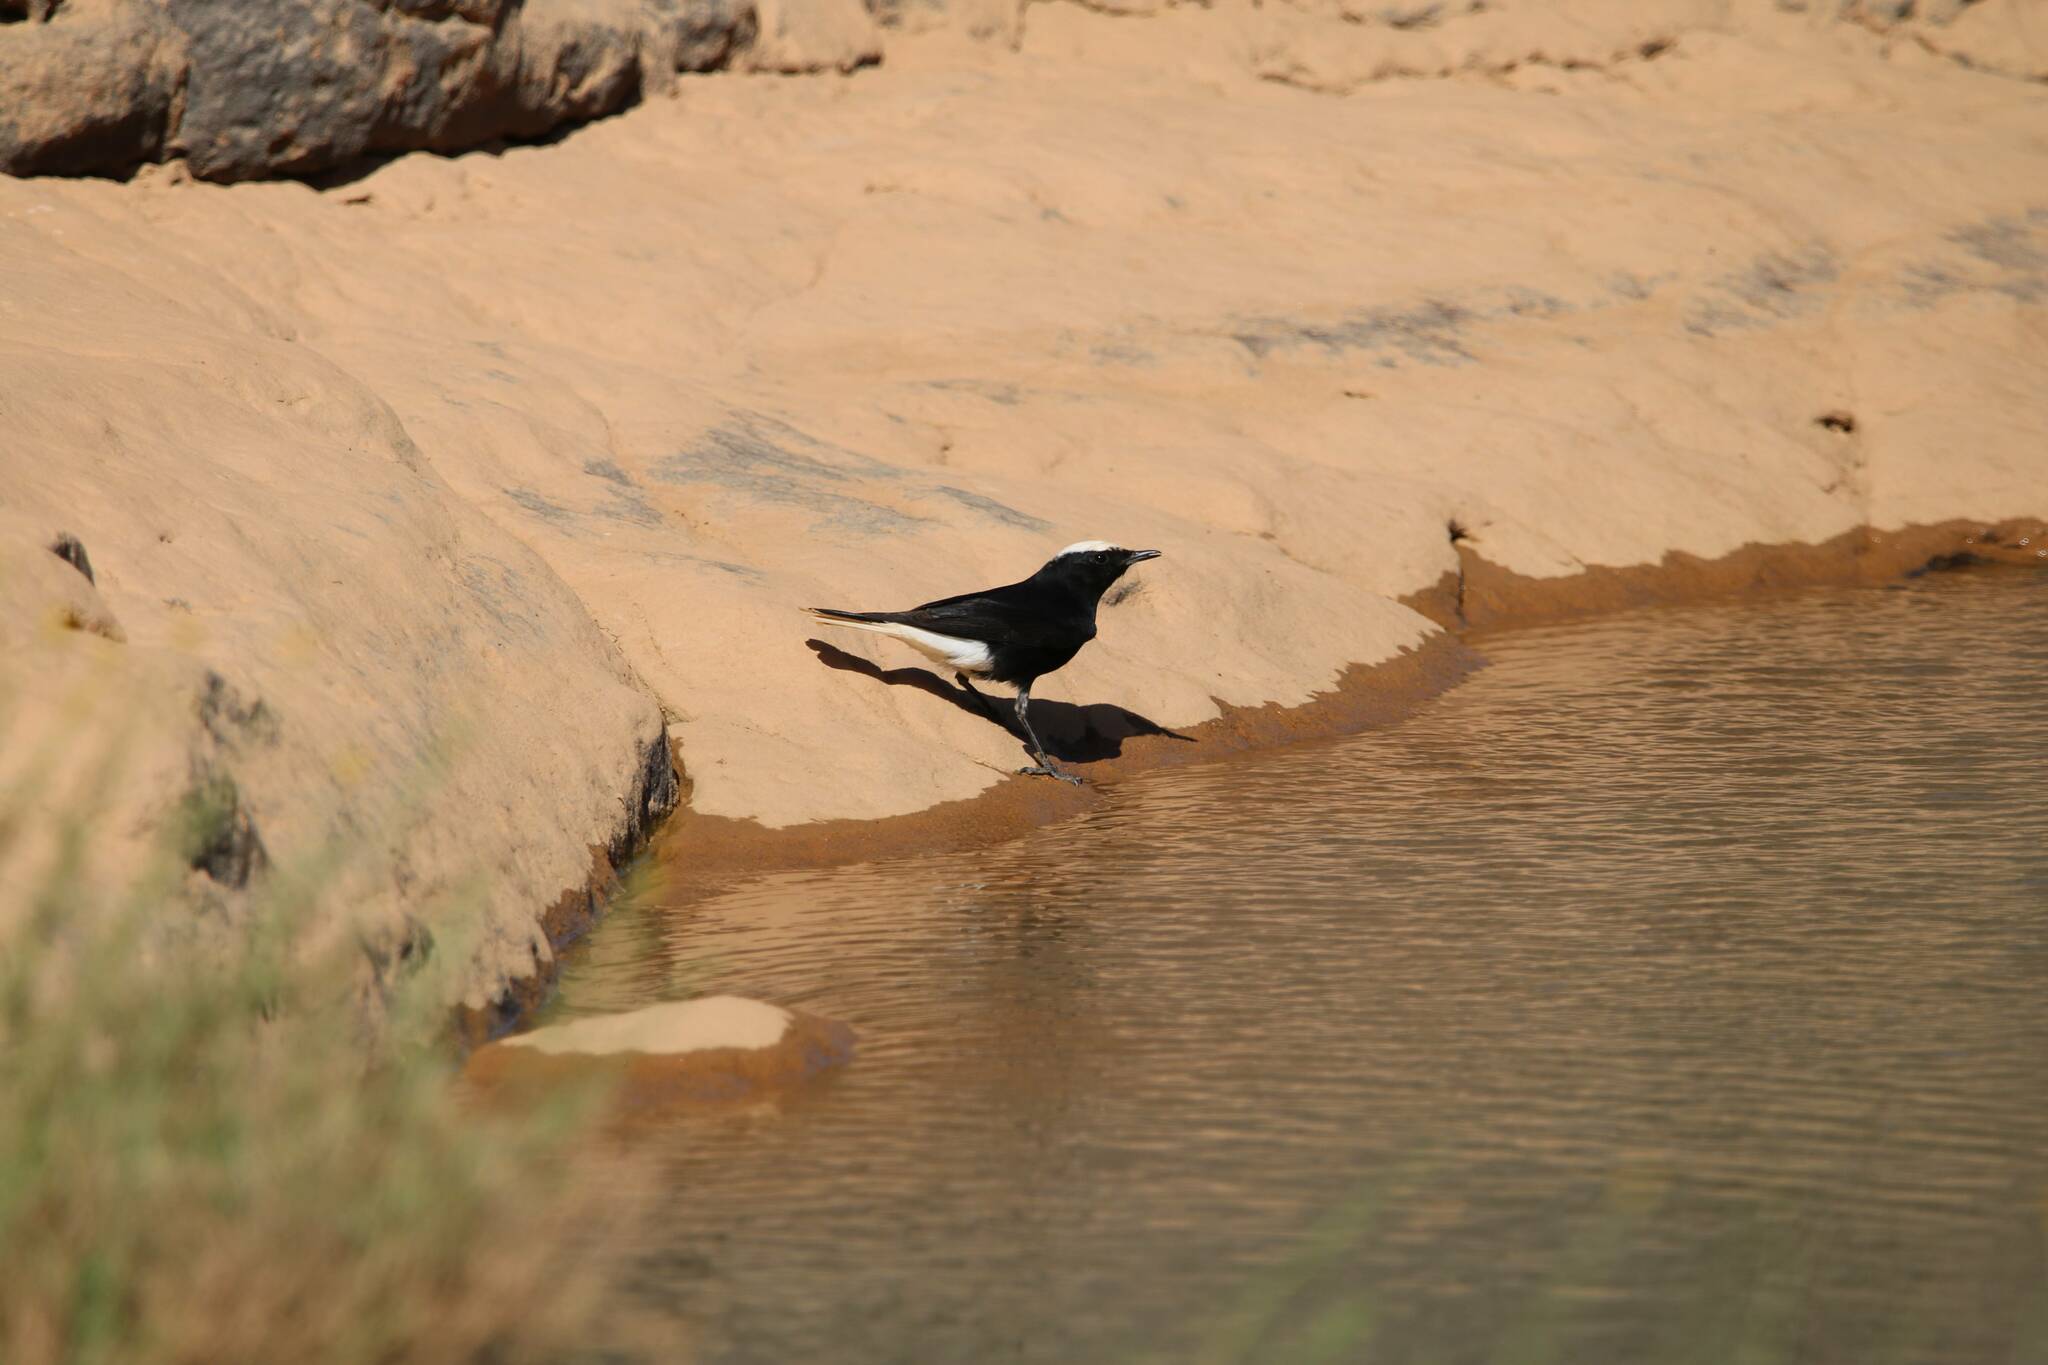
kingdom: Animalia
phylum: Chordata
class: Aves
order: Passeriformes
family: Muscicapidae
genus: Oenanthe
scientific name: Oenanthe leucopyga
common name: White-crowned wheatear
